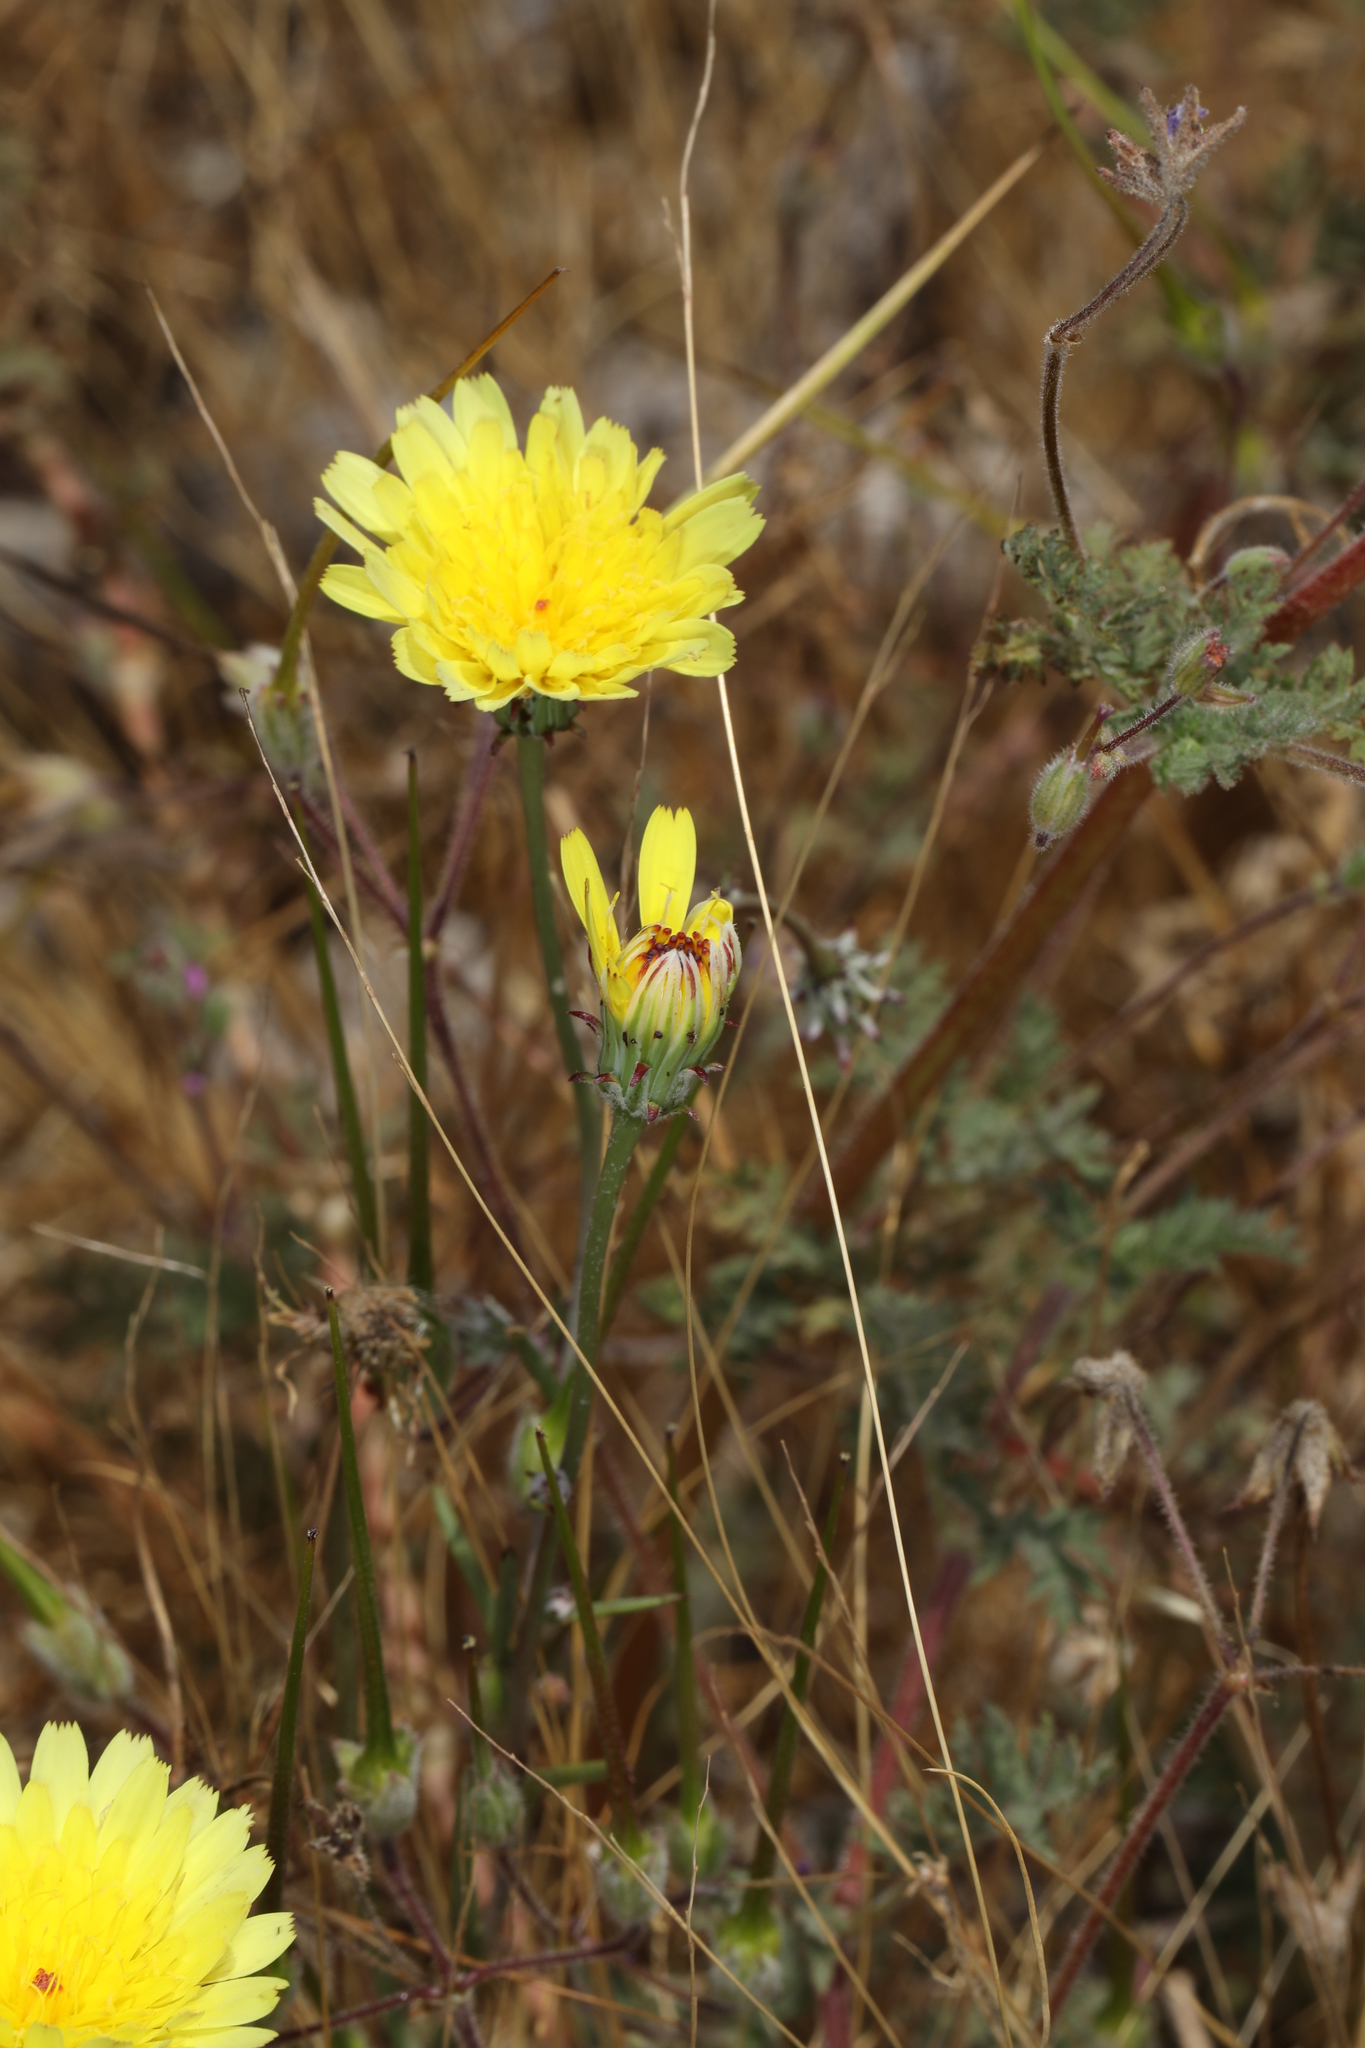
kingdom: Plantae
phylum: Tracheophyta
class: Magnoliopsida
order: Asterales
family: Asteraceae
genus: Malacothrix
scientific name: Malacothrix glabrata
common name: Smooth desert-dandelion
